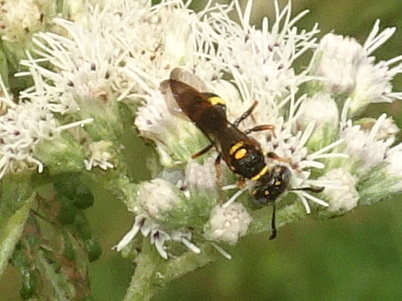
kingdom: Animalia
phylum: Arthropoda
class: Insecta
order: Hymenoptera
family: Crabronidae
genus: Philanthus
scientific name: Philanthus gibbosus
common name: Humped beewolf
